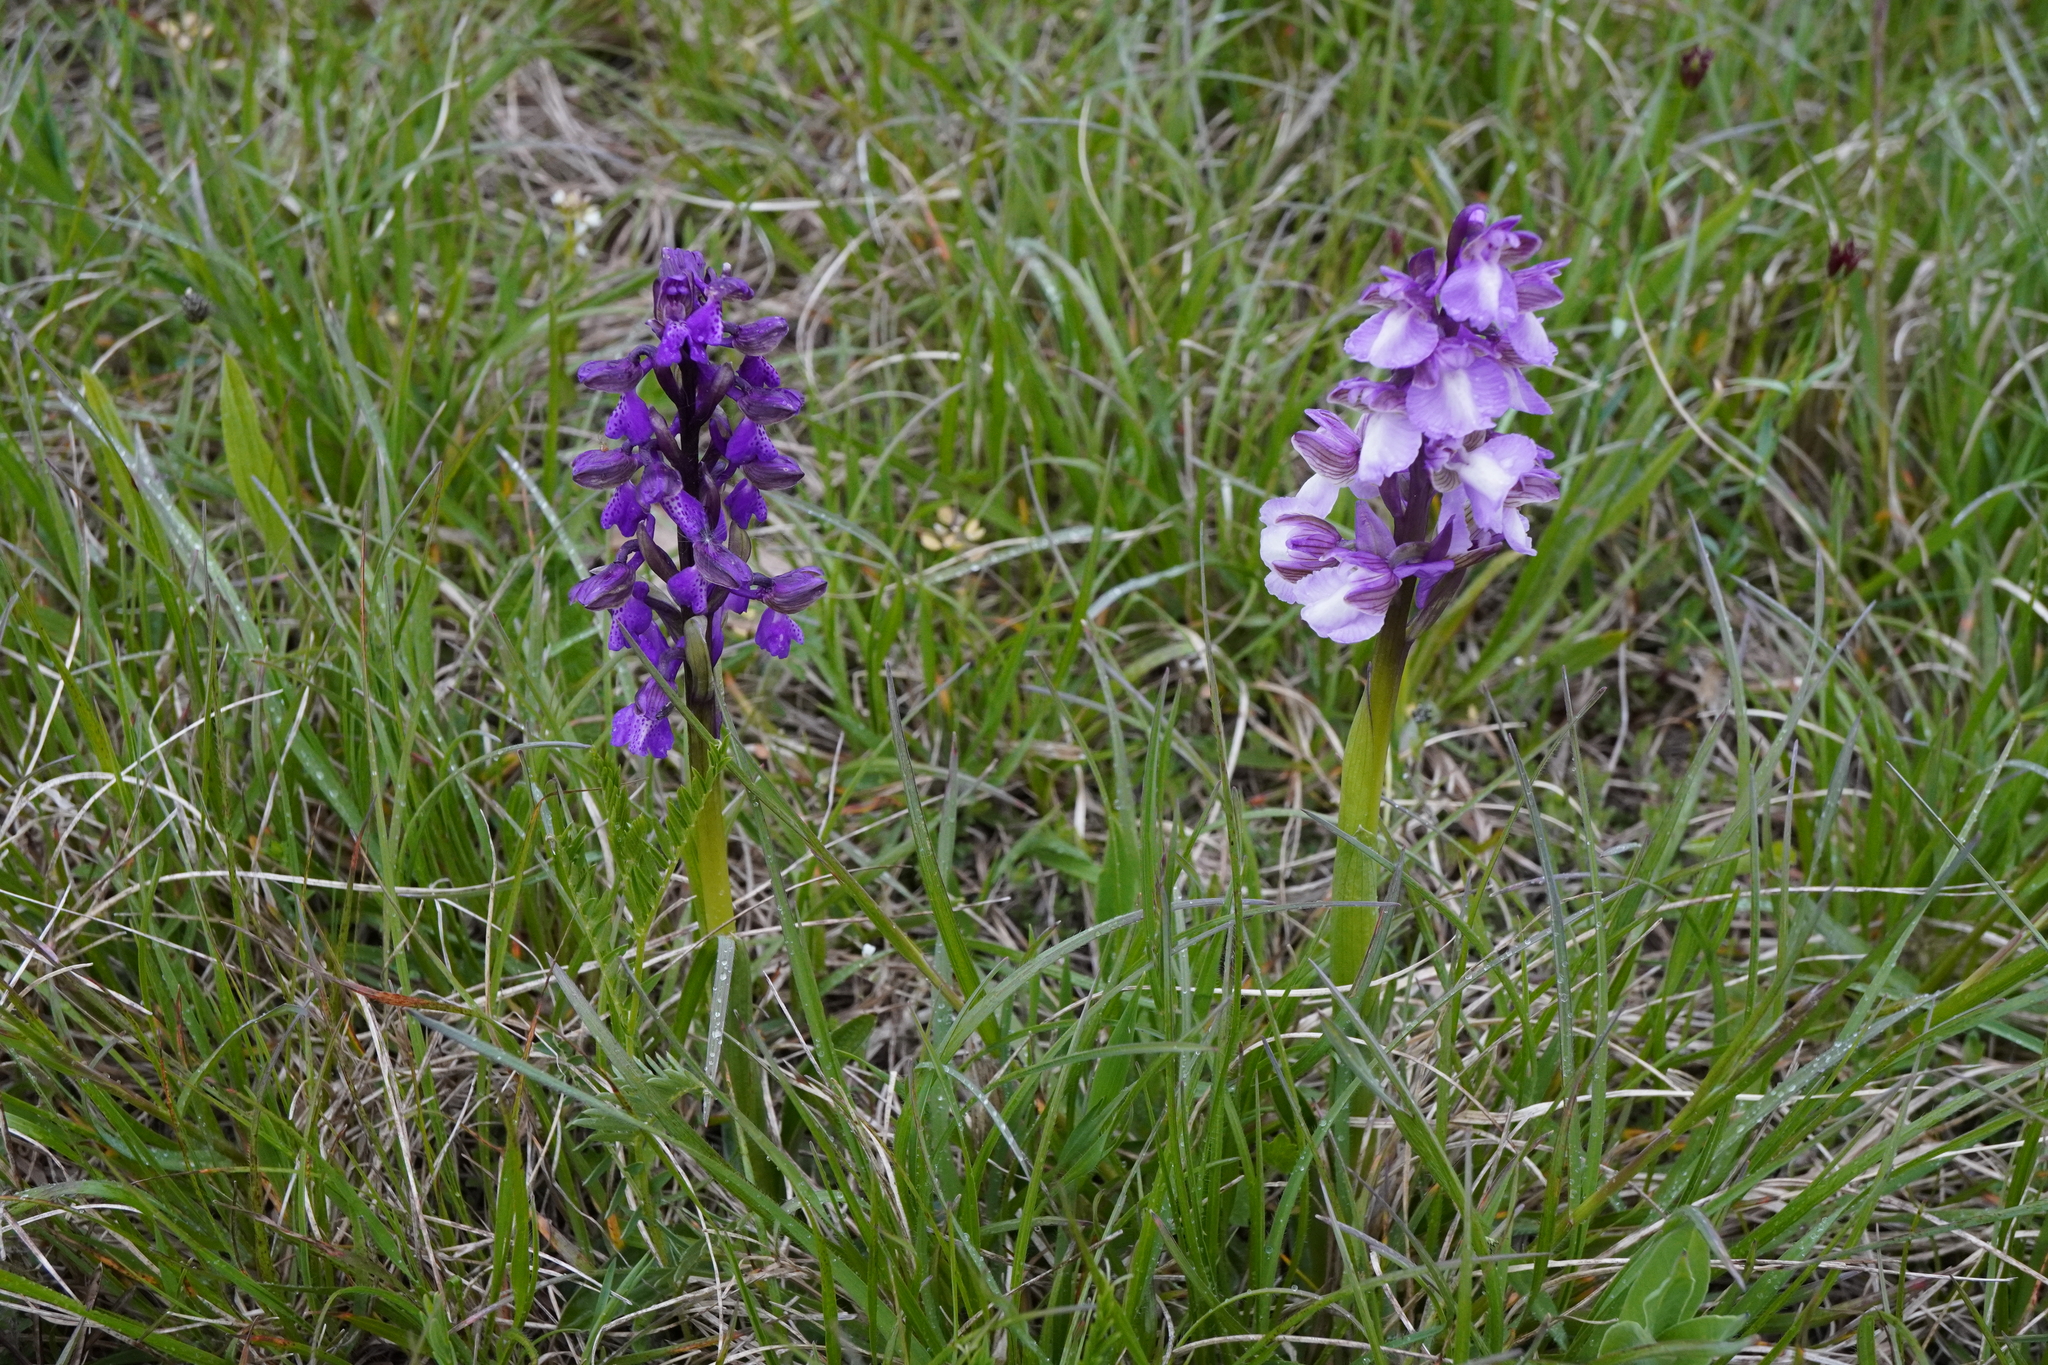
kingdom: Plantae
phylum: Tracheophyta
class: Liliopsida
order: Asparagales
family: Orchidaceae
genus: Anacamptis
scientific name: Anacamptis morio
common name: Green-winged orchid
